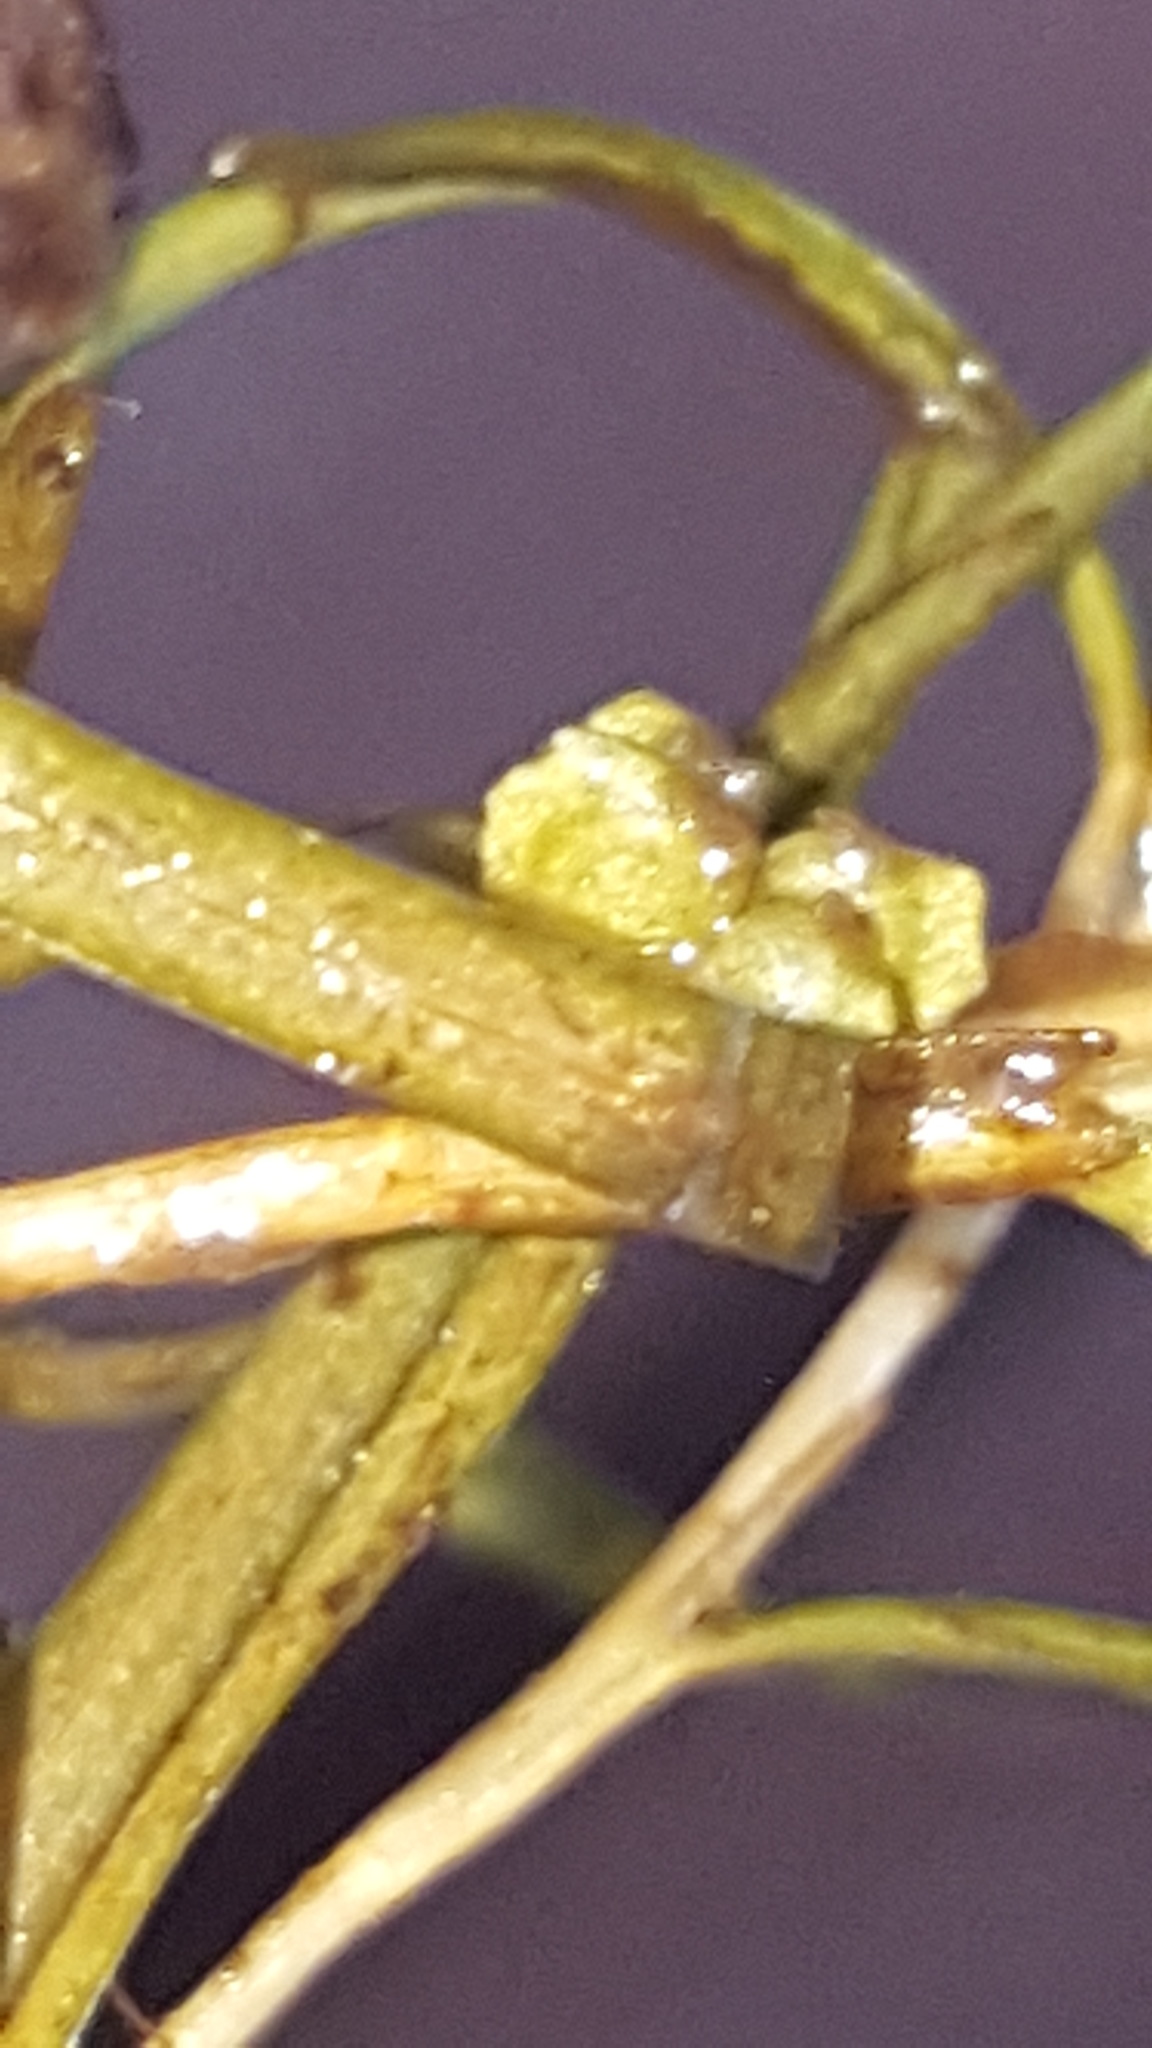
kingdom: Plantae
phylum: Tracheophyta
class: Liliopsida
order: Alismatales
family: Potamogetonaceae
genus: Potamogeton
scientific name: Potamogeton foliosus
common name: Leafy pondweed
